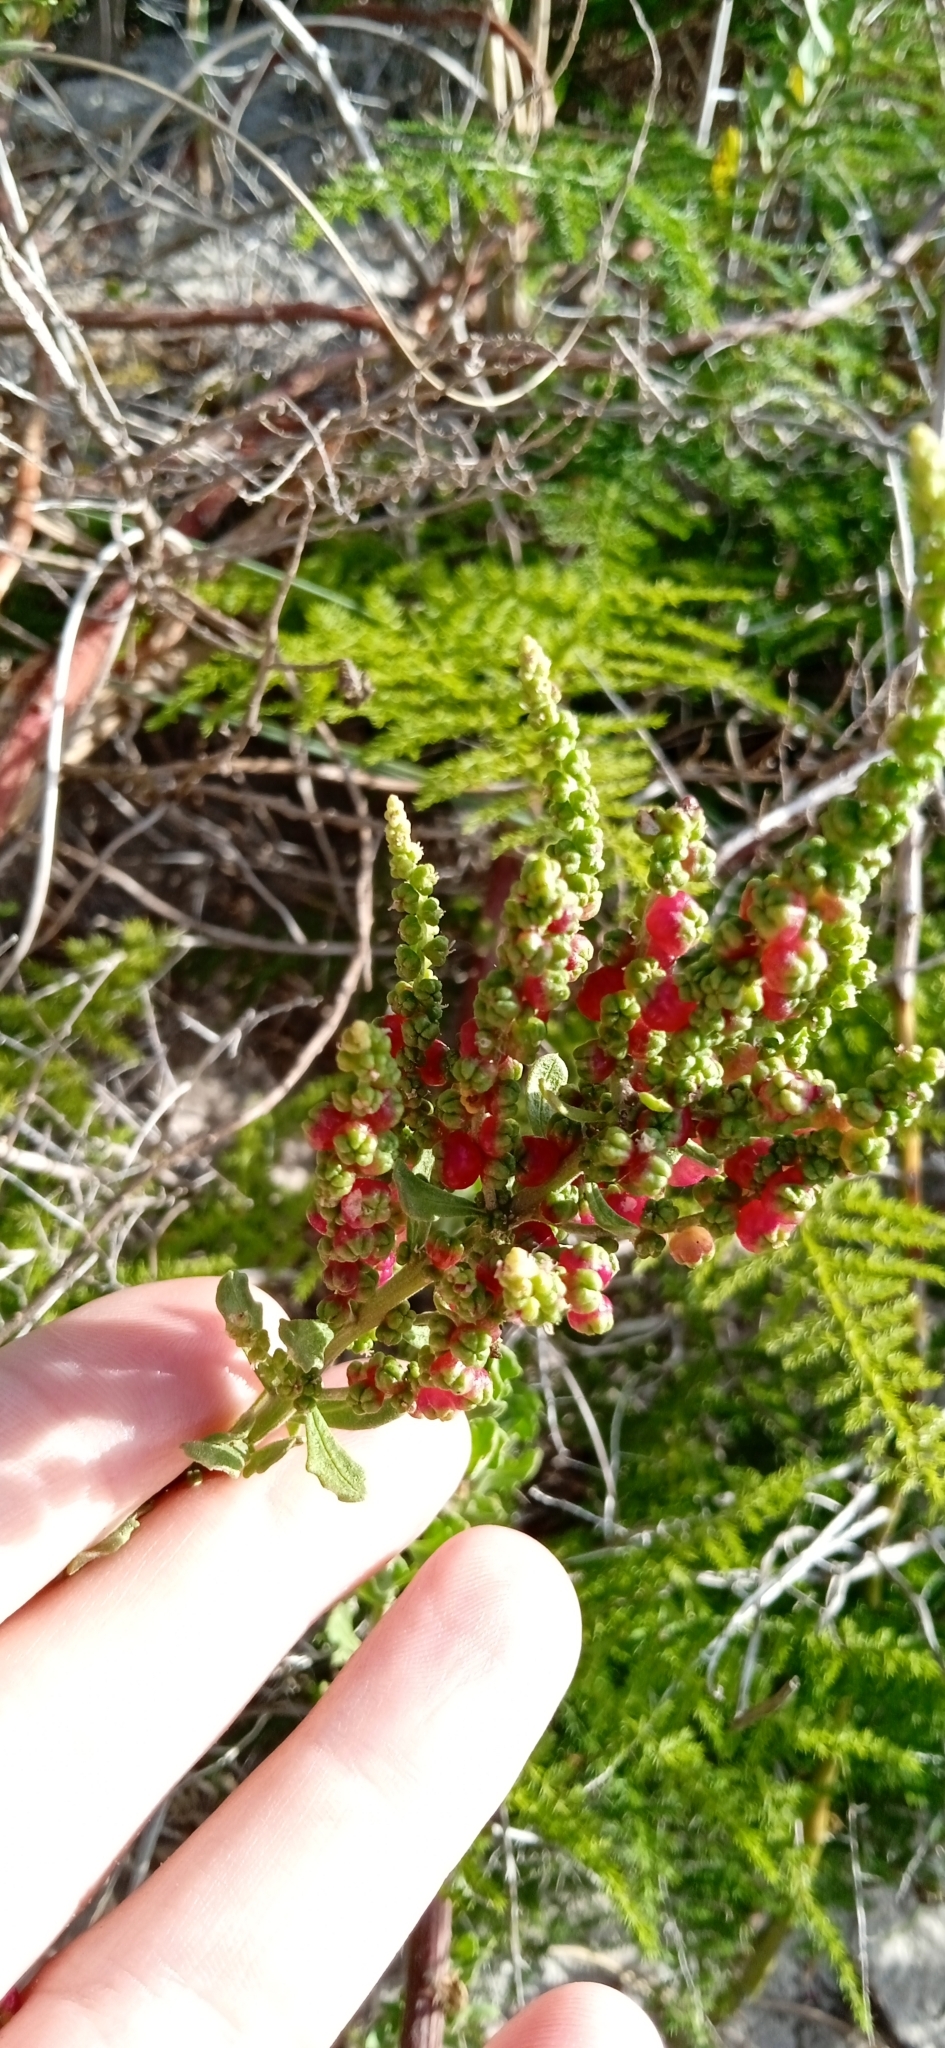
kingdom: Plantae
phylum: Tracheophyta
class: Magnoliopsida
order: Caryophyllales
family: Amaranthaceae
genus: Dysphania
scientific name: Dysphania retusa
